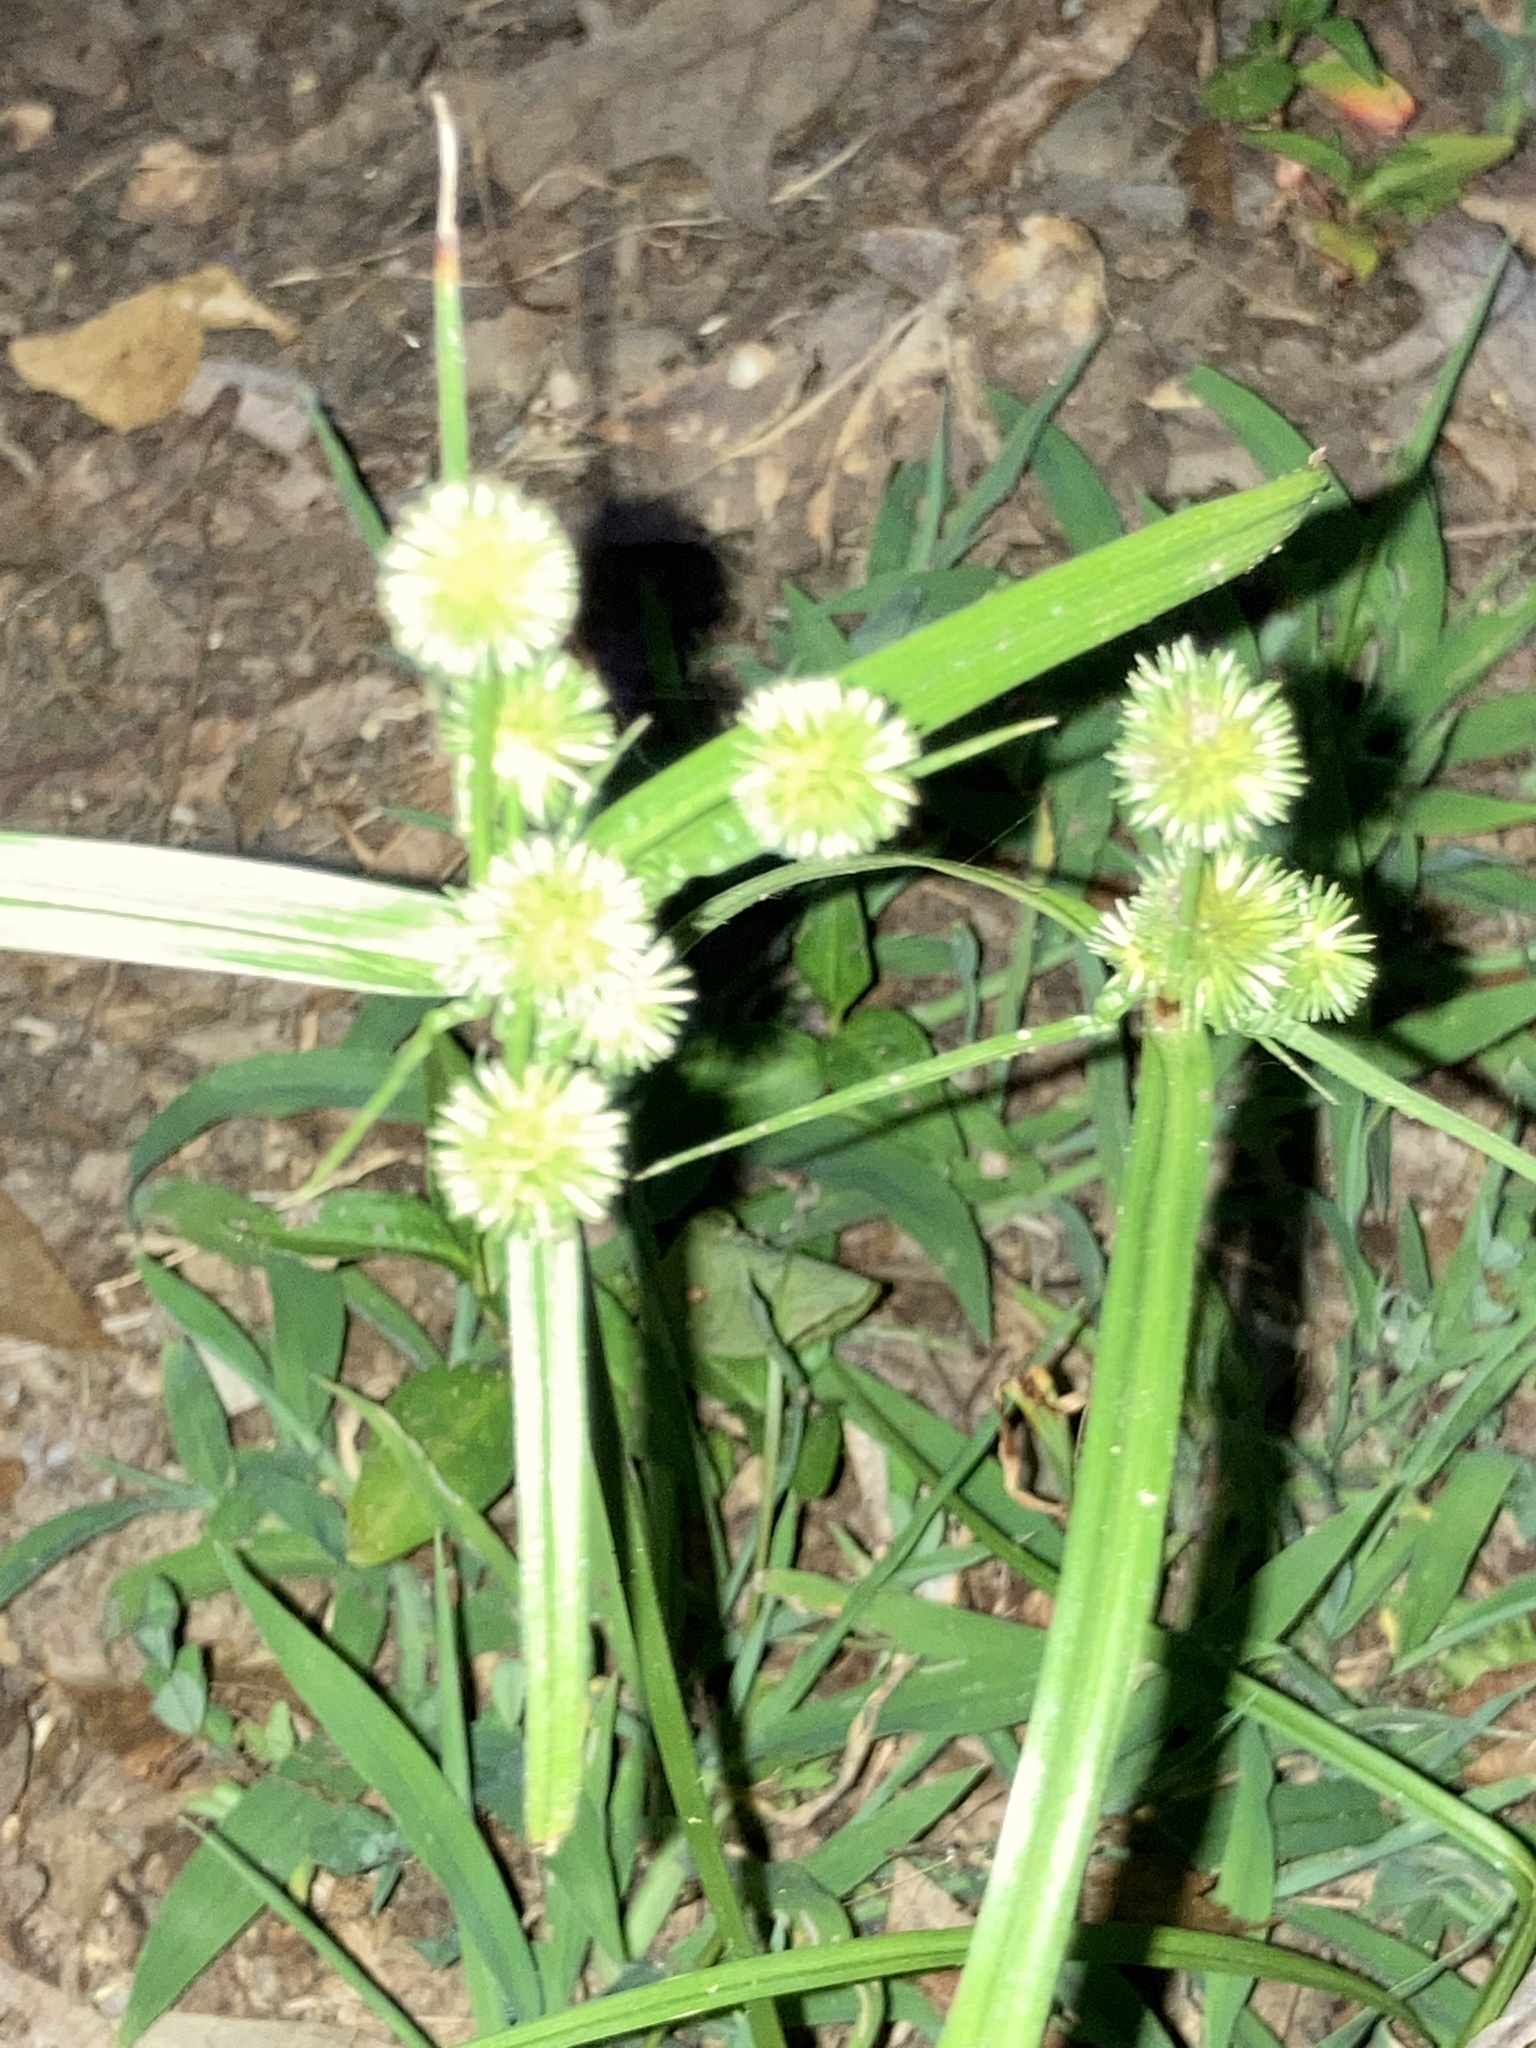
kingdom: Plantae
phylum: Tracheophyta
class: Liliopsida
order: Poales
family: Cyperaceae
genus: Cyperus
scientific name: Cyperus echinatus
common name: Teasel sedge
